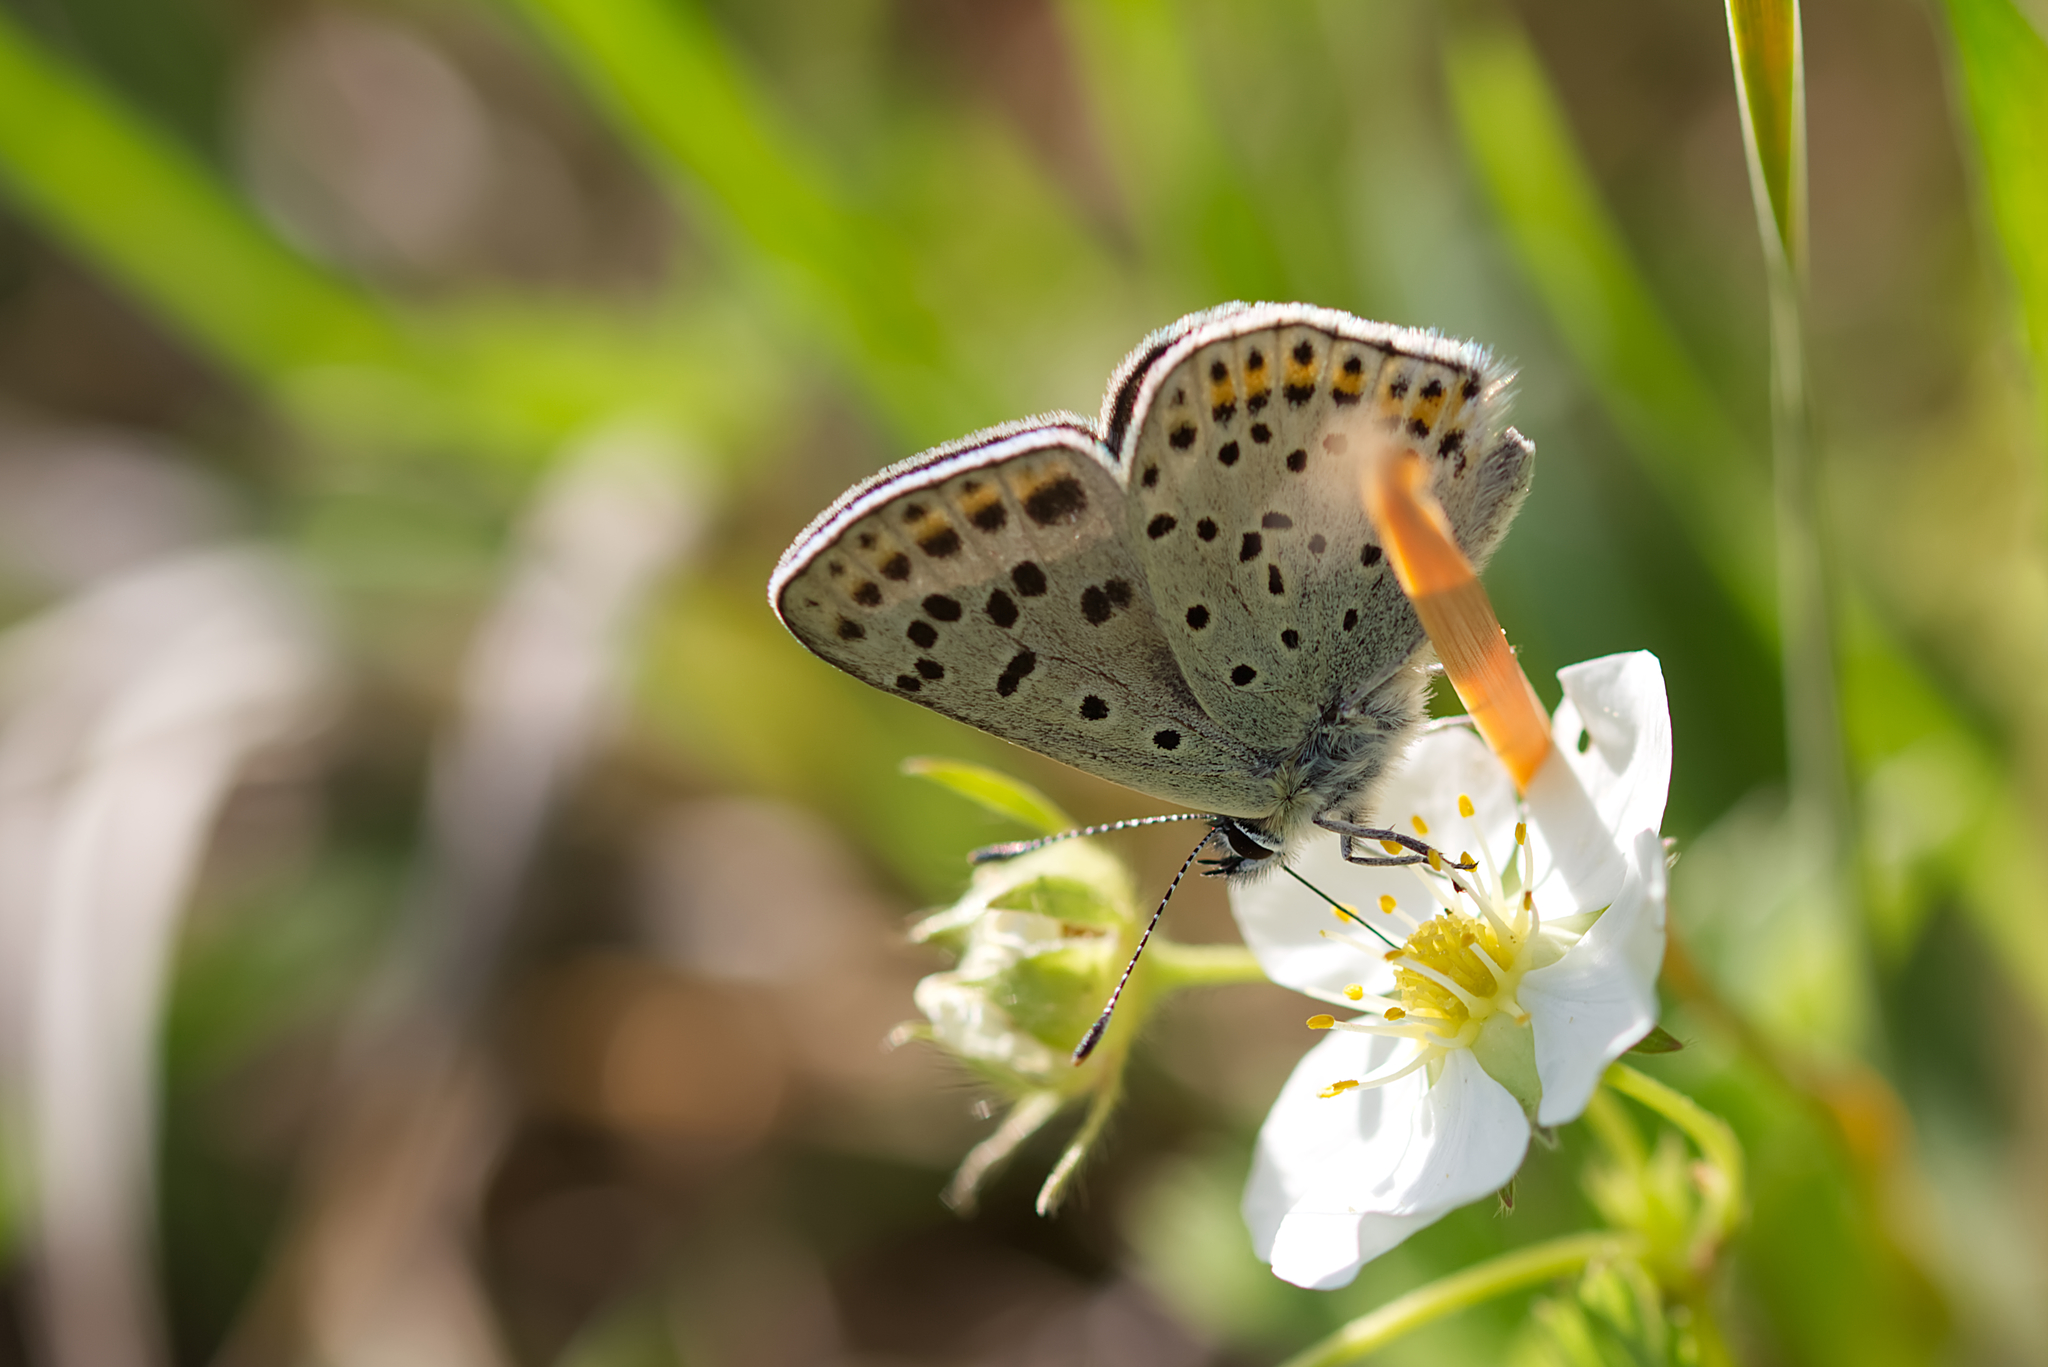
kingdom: Animalia
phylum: Arthropoda
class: Insecta
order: Lepidoptera
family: Lycaenidae
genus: Loweia
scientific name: Loweia tityrus
